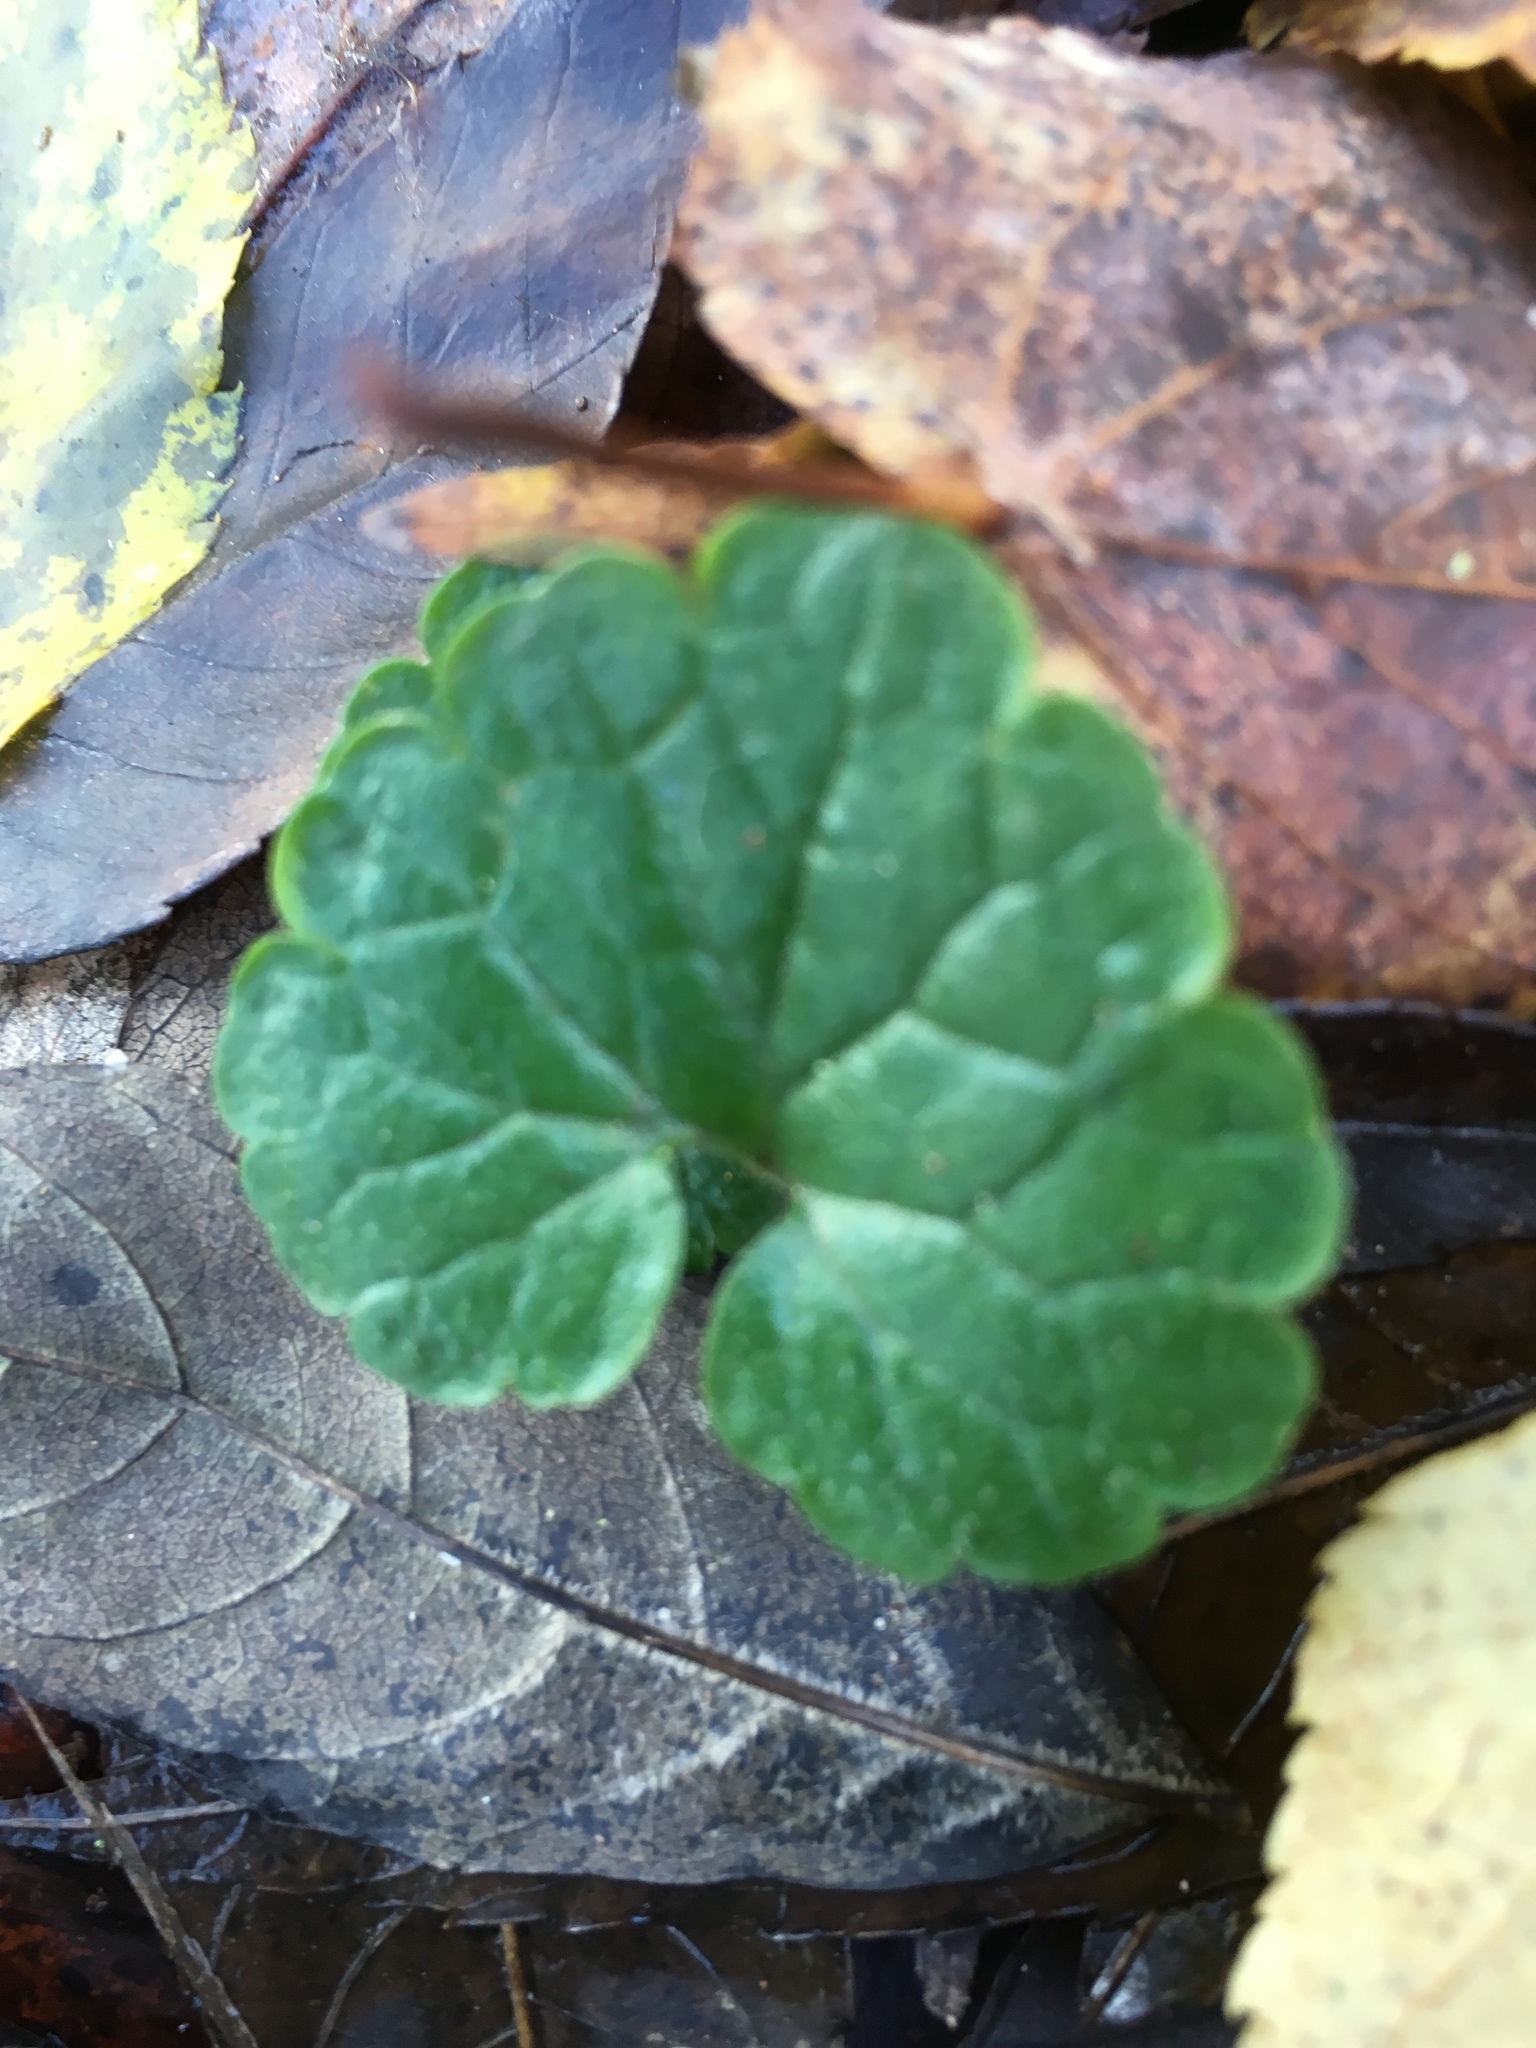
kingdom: Plantae
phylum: Tracheophyta
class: Magnoliopsida
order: Lamiales
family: Lamiaceae
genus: Glechoma
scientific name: Glechoma hederacea
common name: Ground ivy
